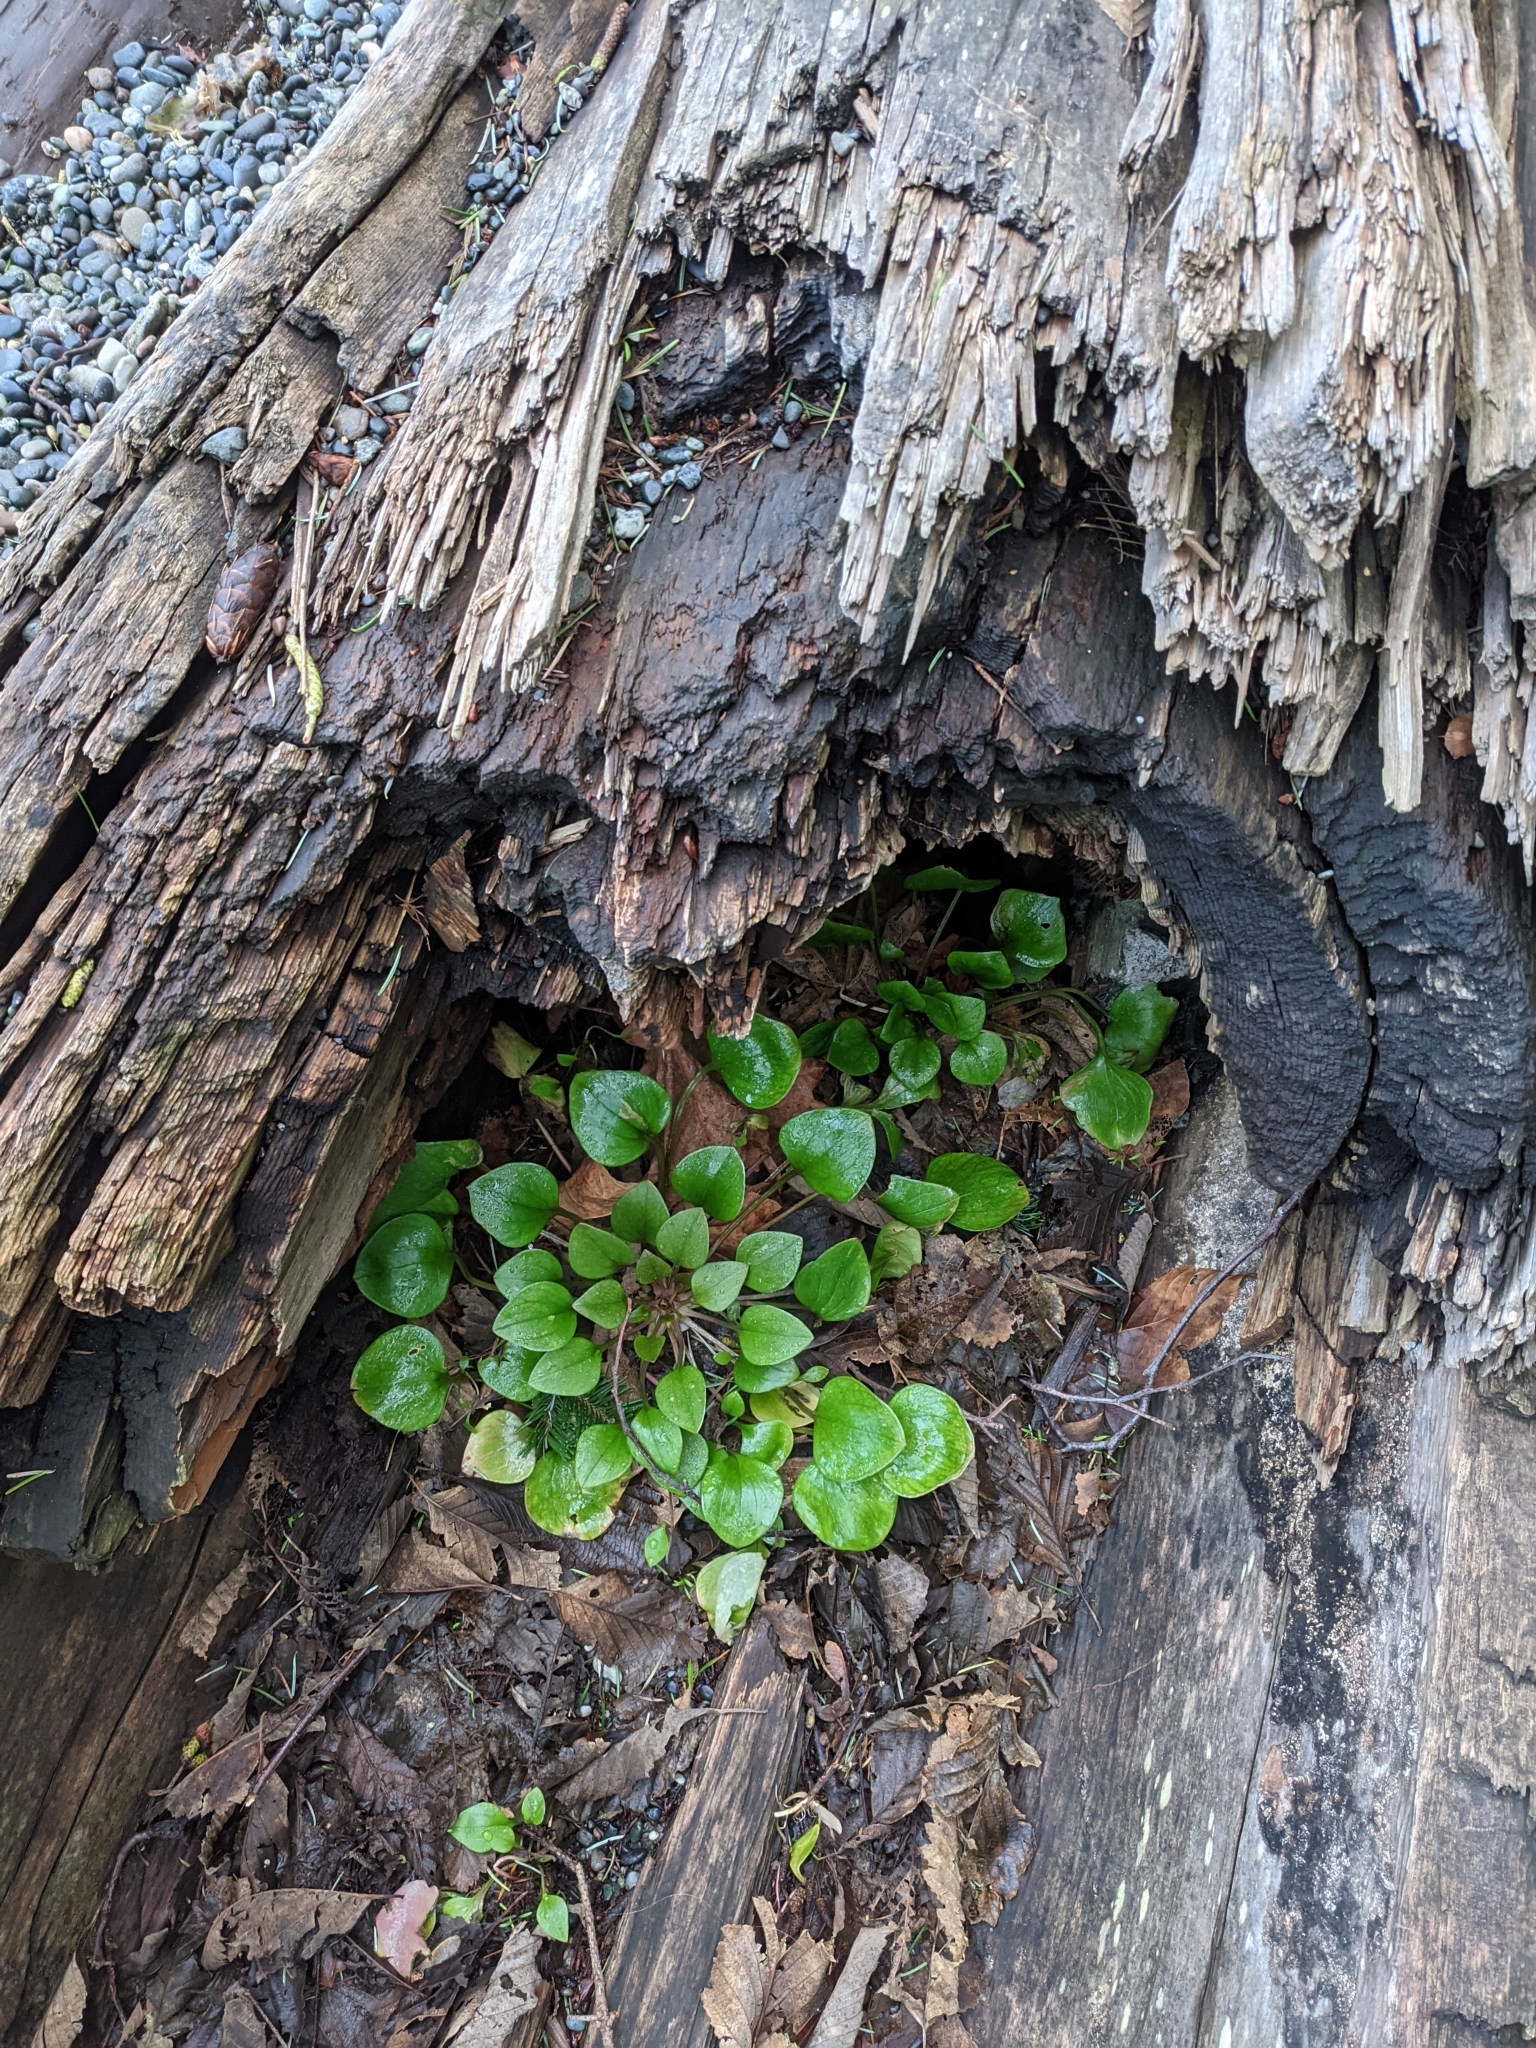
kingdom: Plantae
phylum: Tracheophyta
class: Magnoliopsida
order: Caryophyllales
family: Montiaceae
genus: Claytonia
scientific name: Claytonia sibirica
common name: Pink purslane
